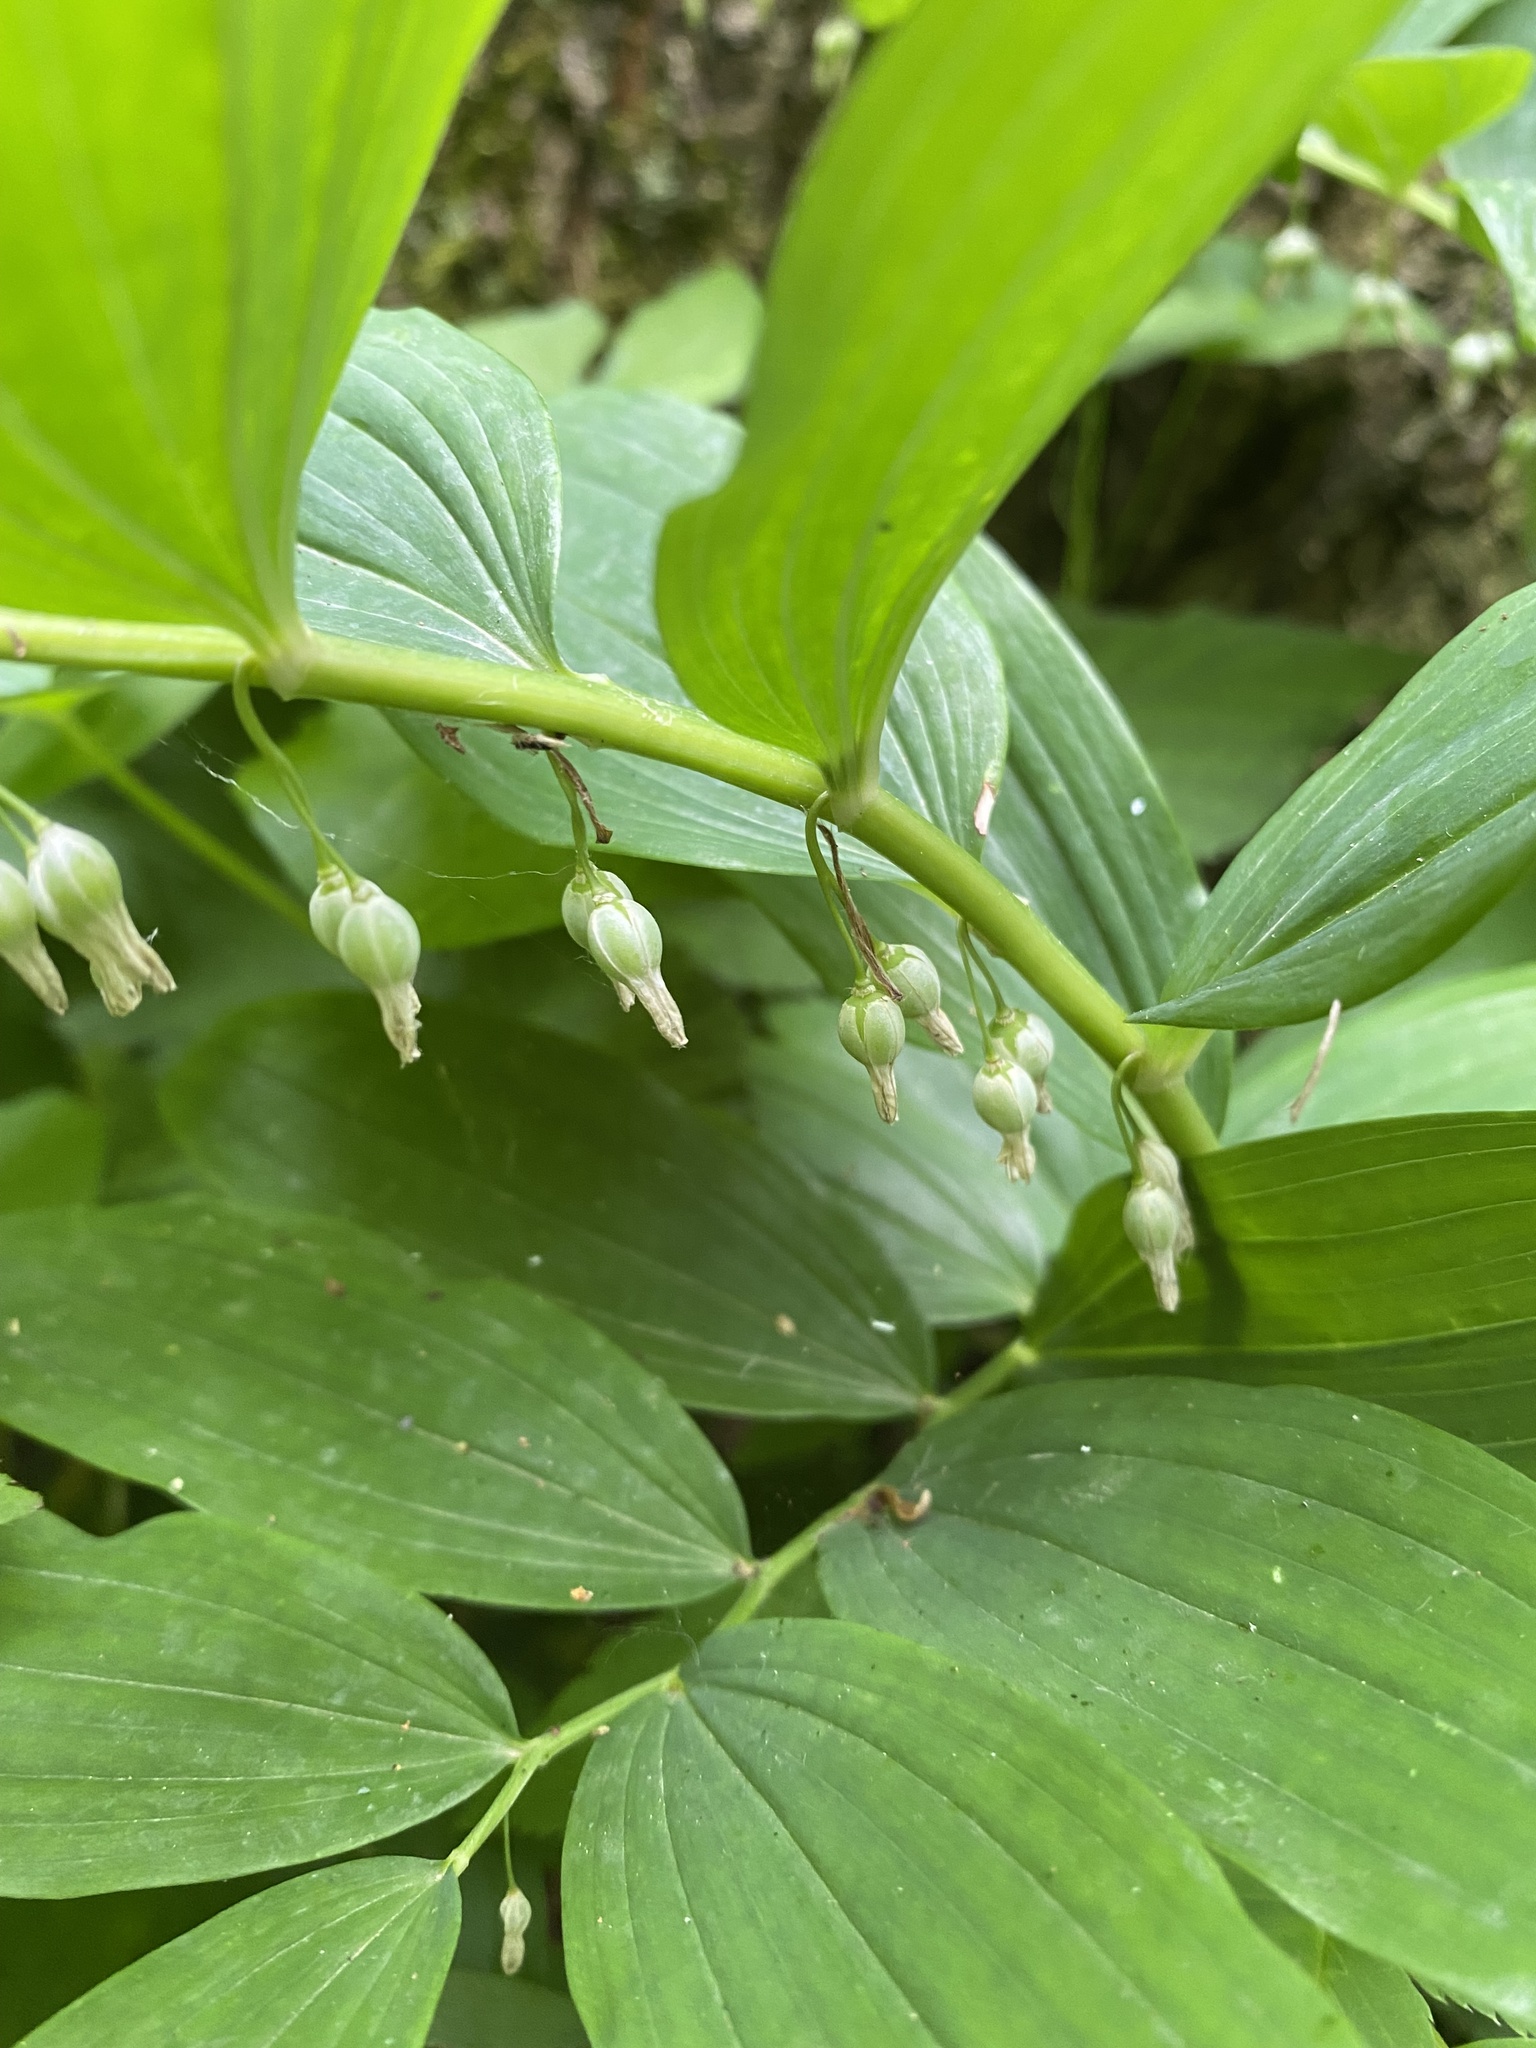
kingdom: Plantae
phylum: Tracheophyta
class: Liliopsida
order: Asparagales
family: Asparagaceae
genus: Polygonatum
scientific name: Polygonatum multiflorum
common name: Solomon's-seal
